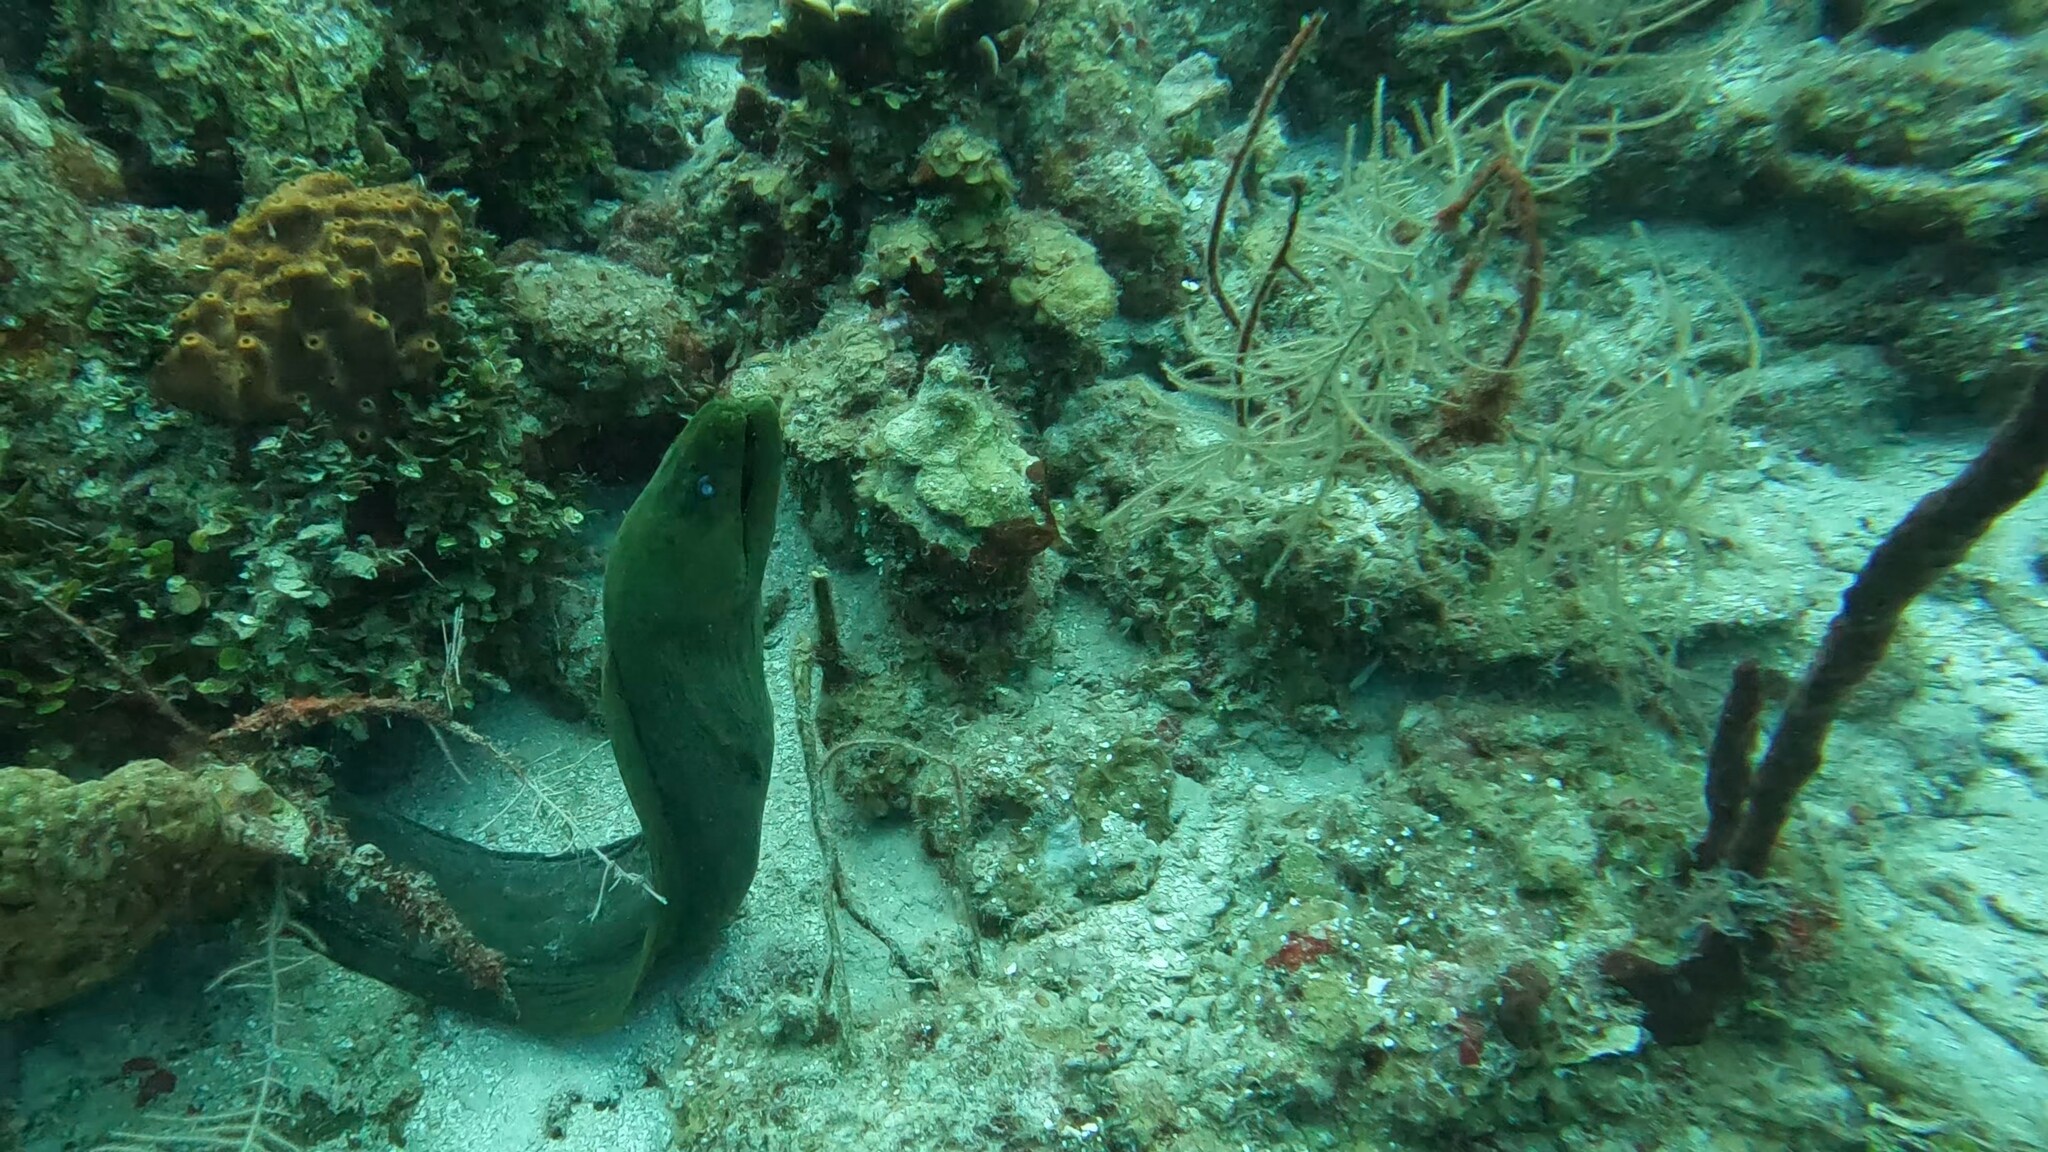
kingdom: Animalia
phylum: Chordata
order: Anguilliformes
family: Muraenidae
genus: Gymnothorax
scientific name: Gymnothorax funebris
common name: Green moray
